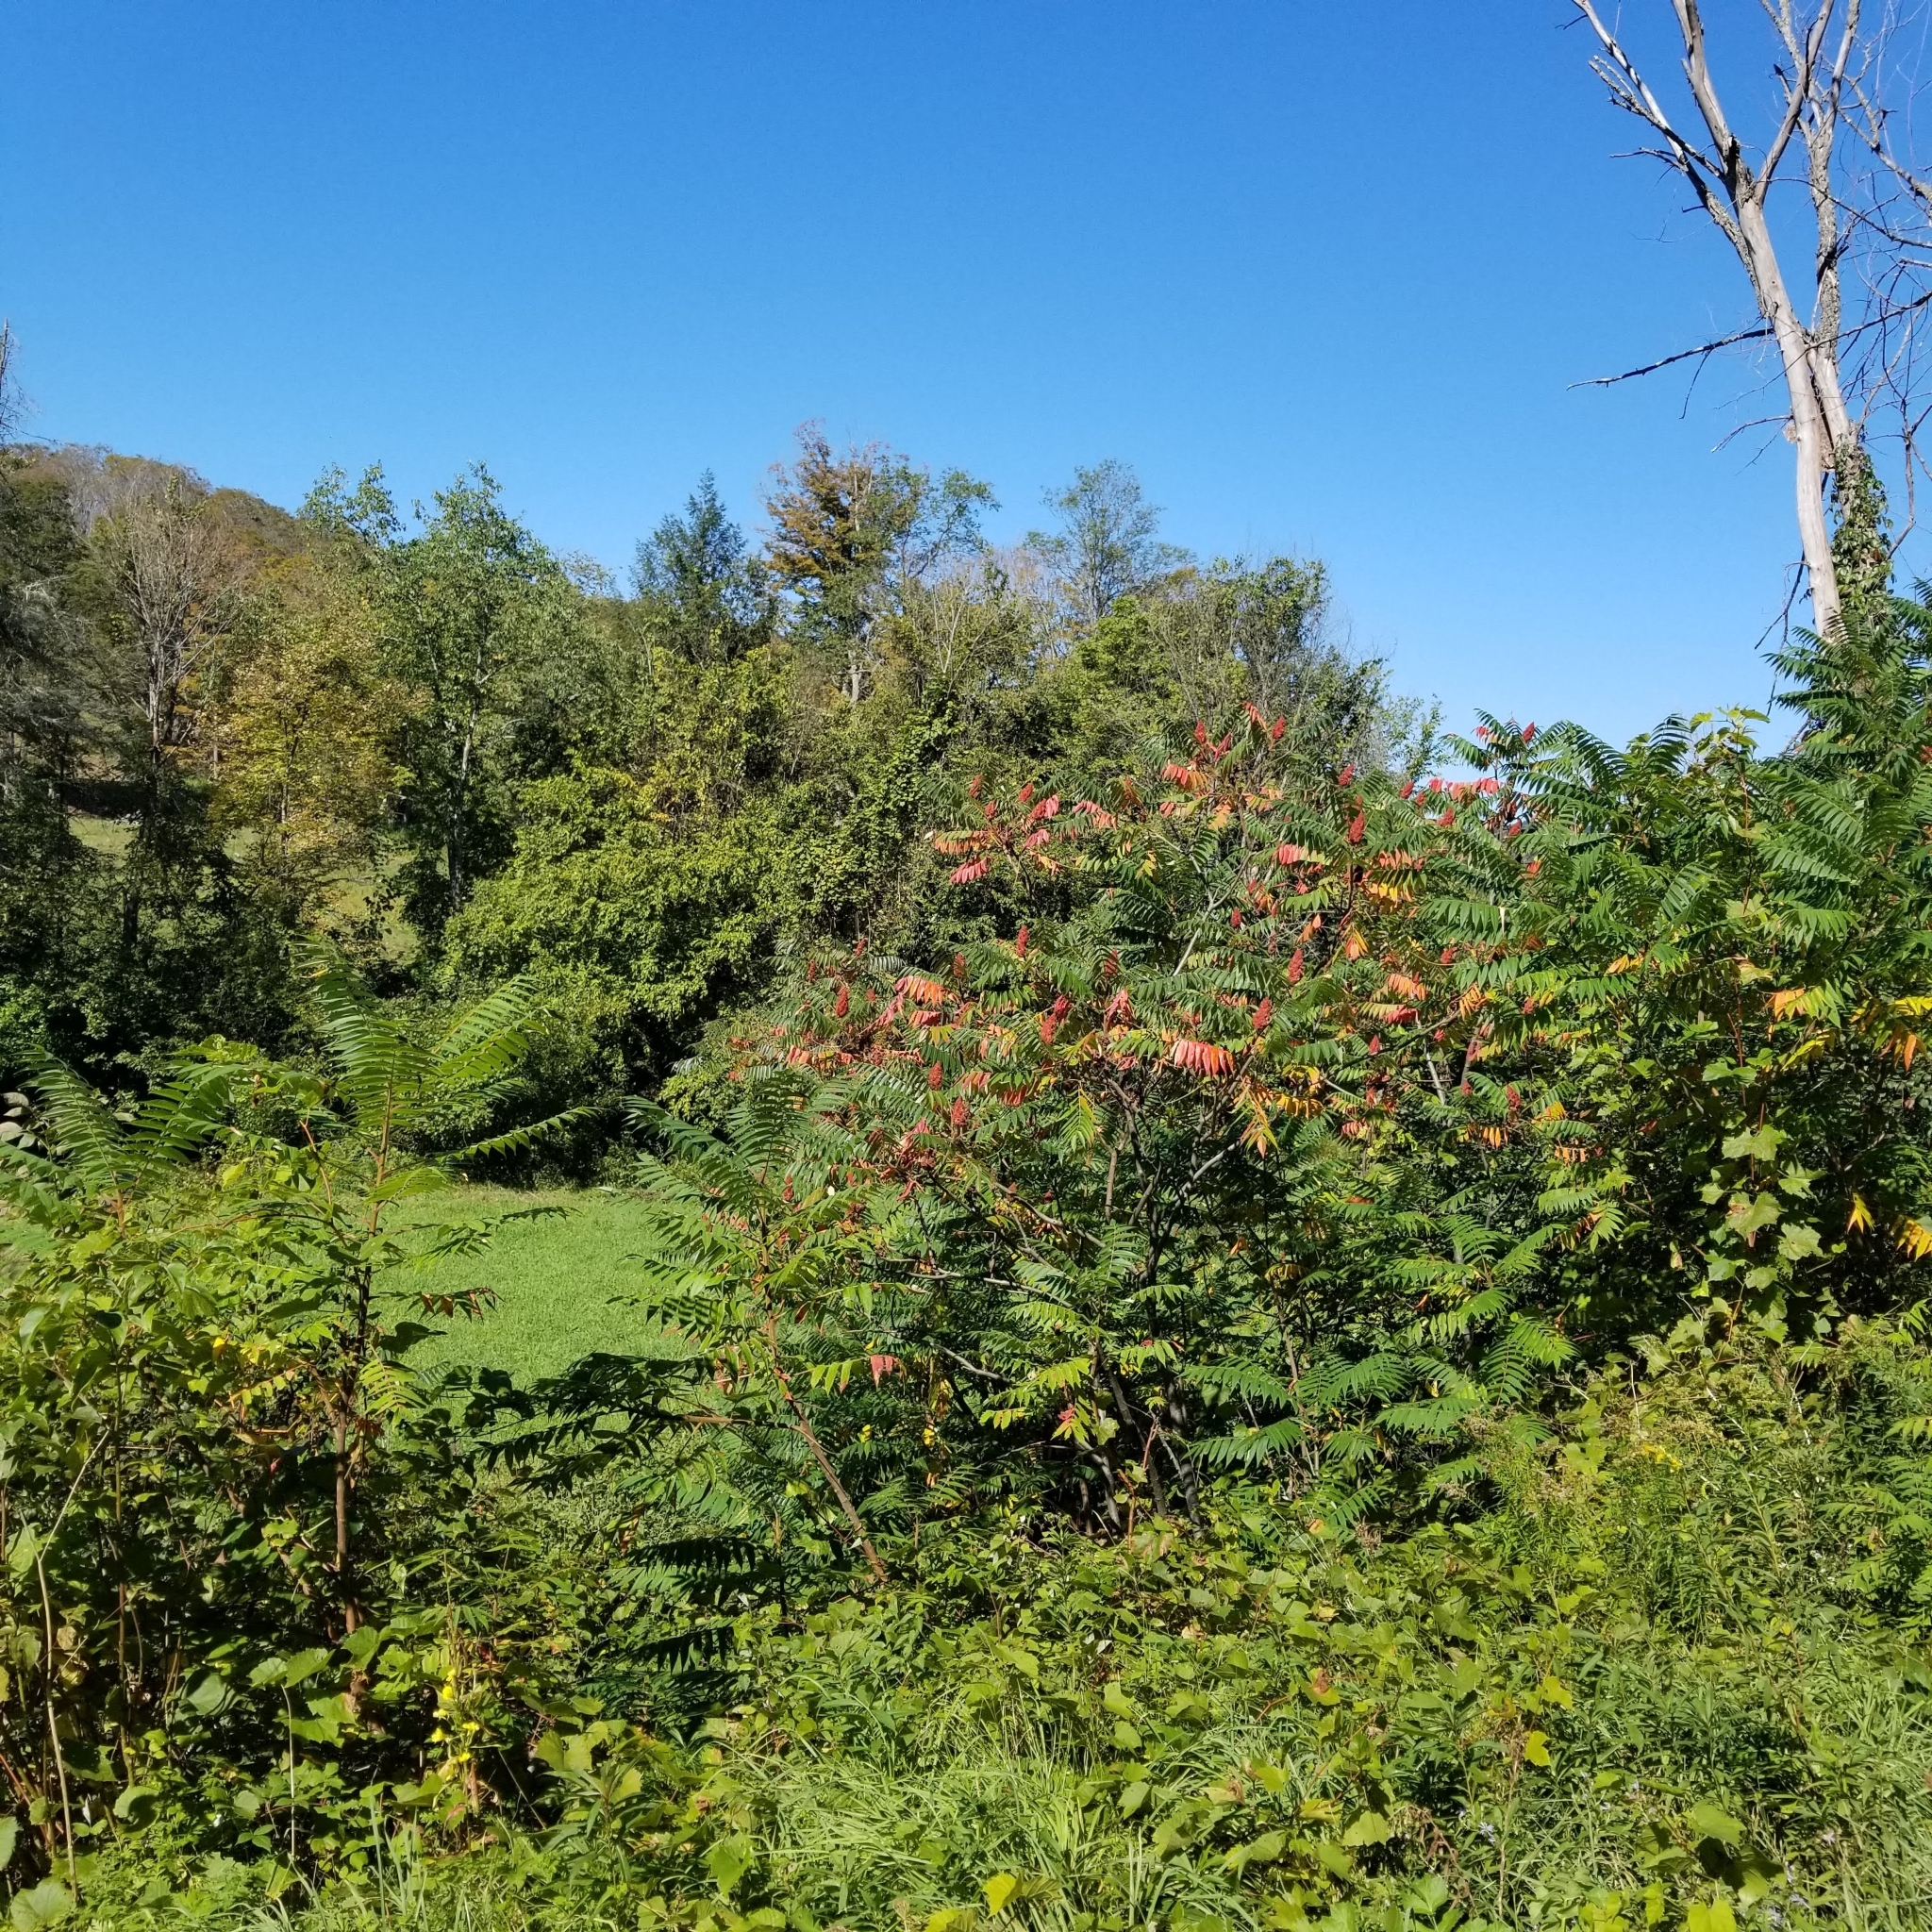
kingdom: Plantae
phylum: Tracheophyta
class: Magnoliopsida
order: Sapindales
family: Anacardiaceae
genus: Rhus
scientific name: Rhus typhina
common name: Staghorn sumac
